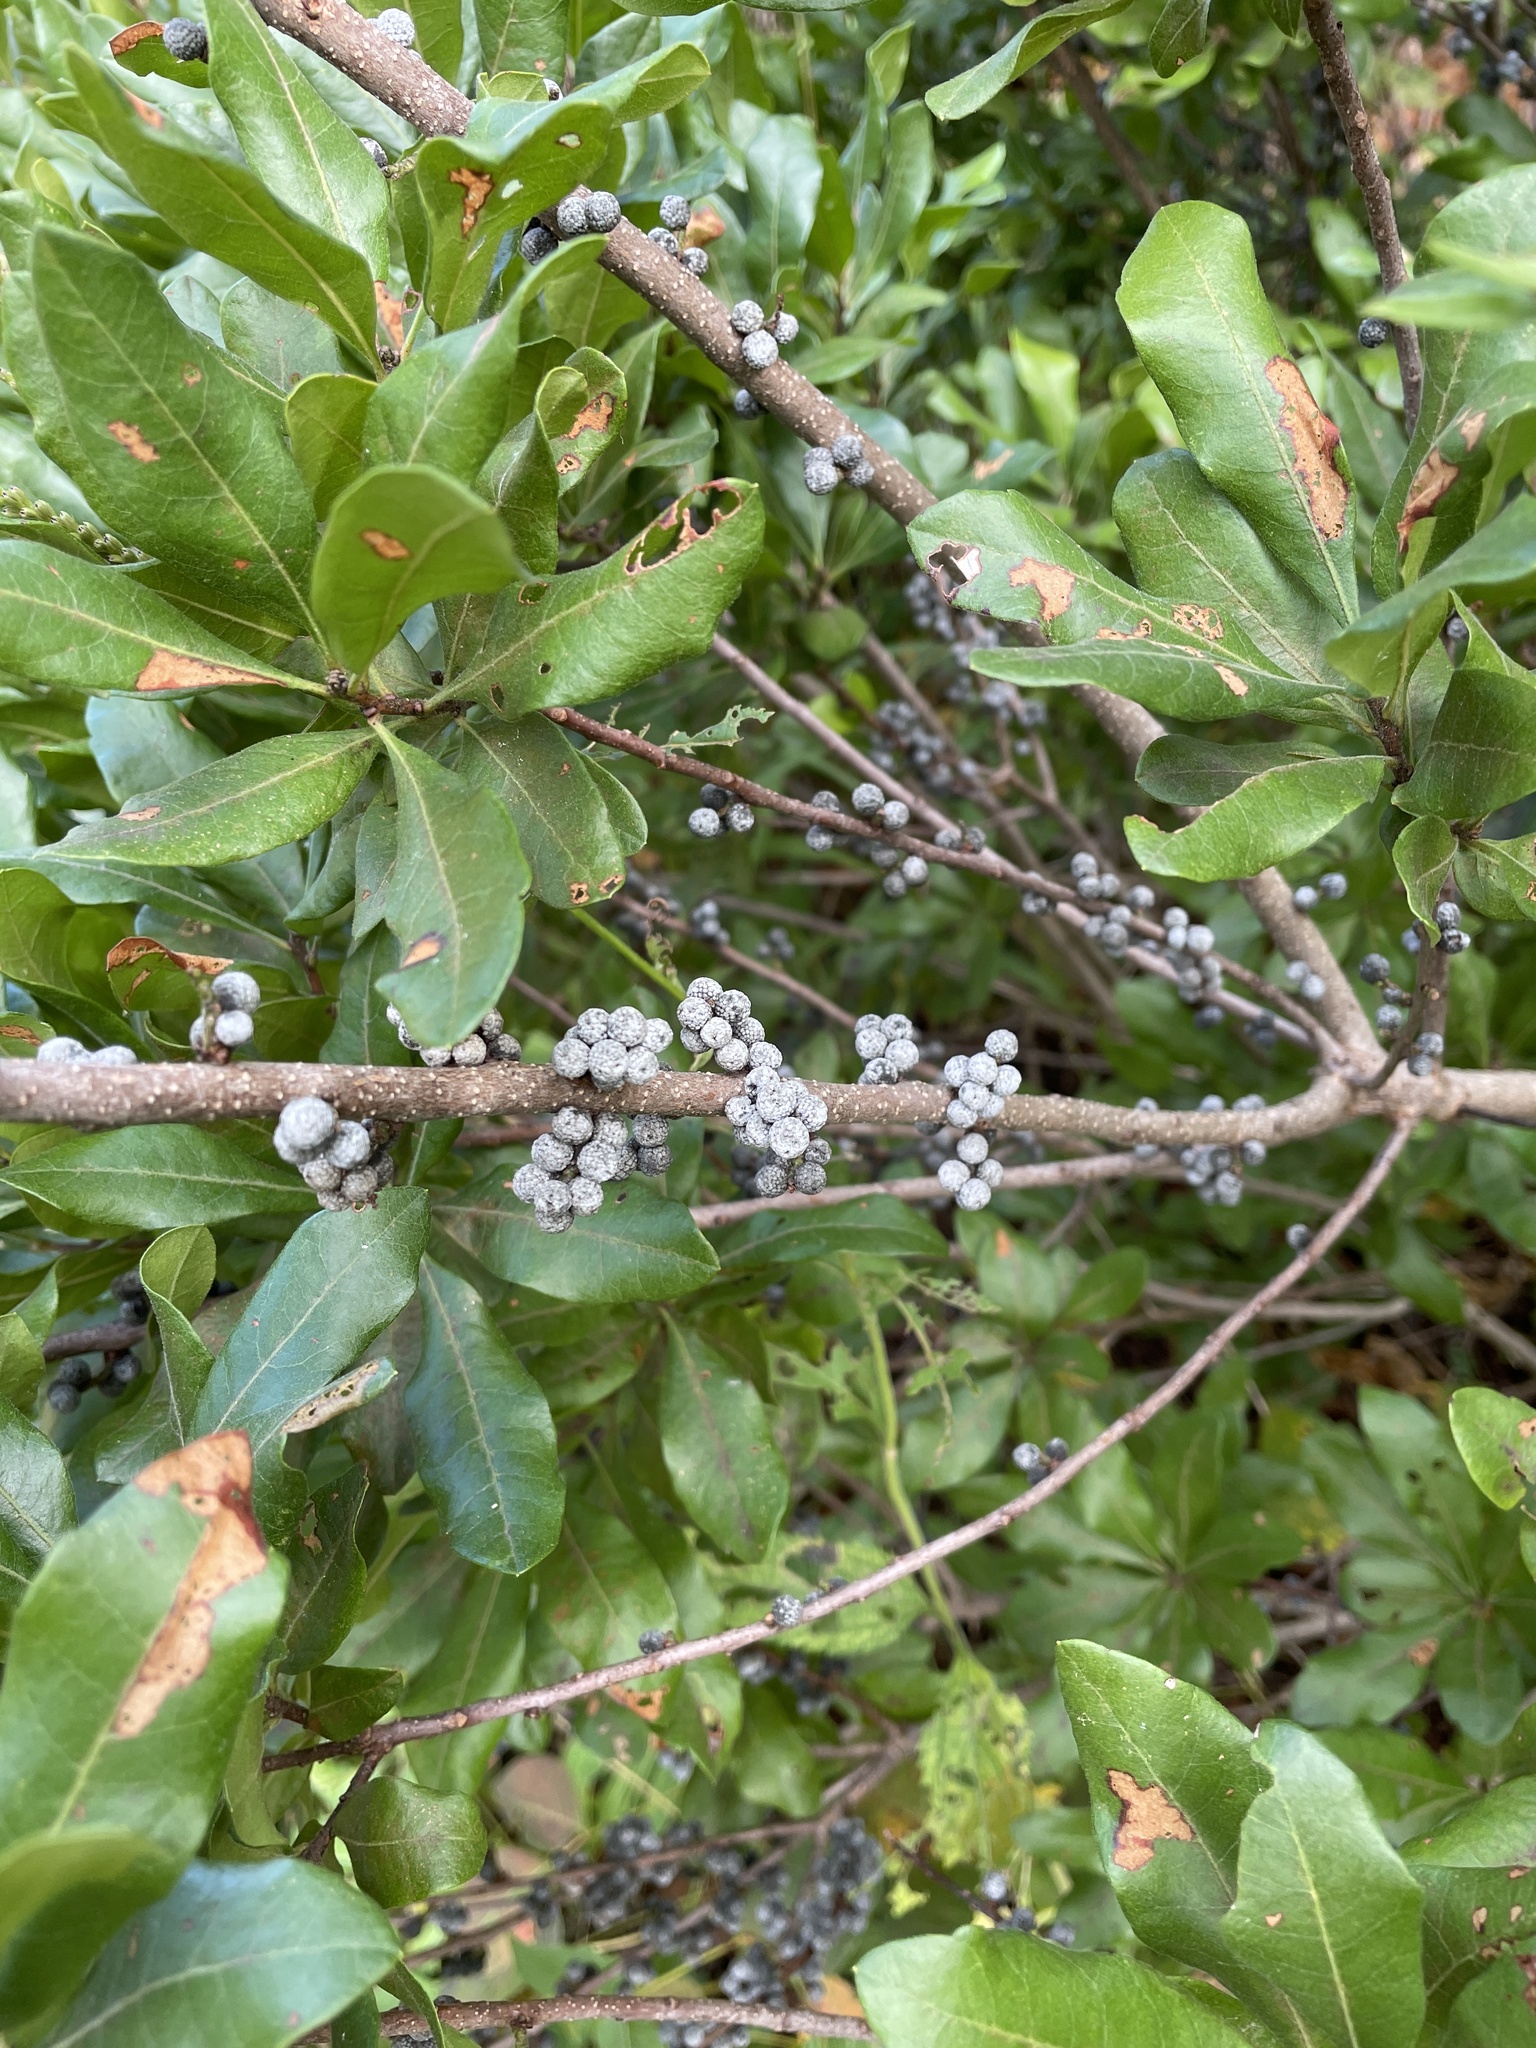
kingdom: Plantae
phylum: Tracheophyta
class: Magnoliopsida
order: Fagales
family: Myricaceae
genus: Morella
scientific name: Morella pensylvanica
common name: Northern bayberry
